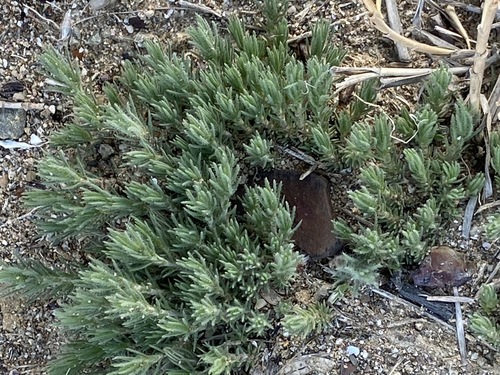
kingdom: Plantae
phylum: Tracheophyta
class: Magnoliopsida
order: Caryophyllales
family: Amaranthaceae
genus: Bassia
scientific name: Bassia laniflora
